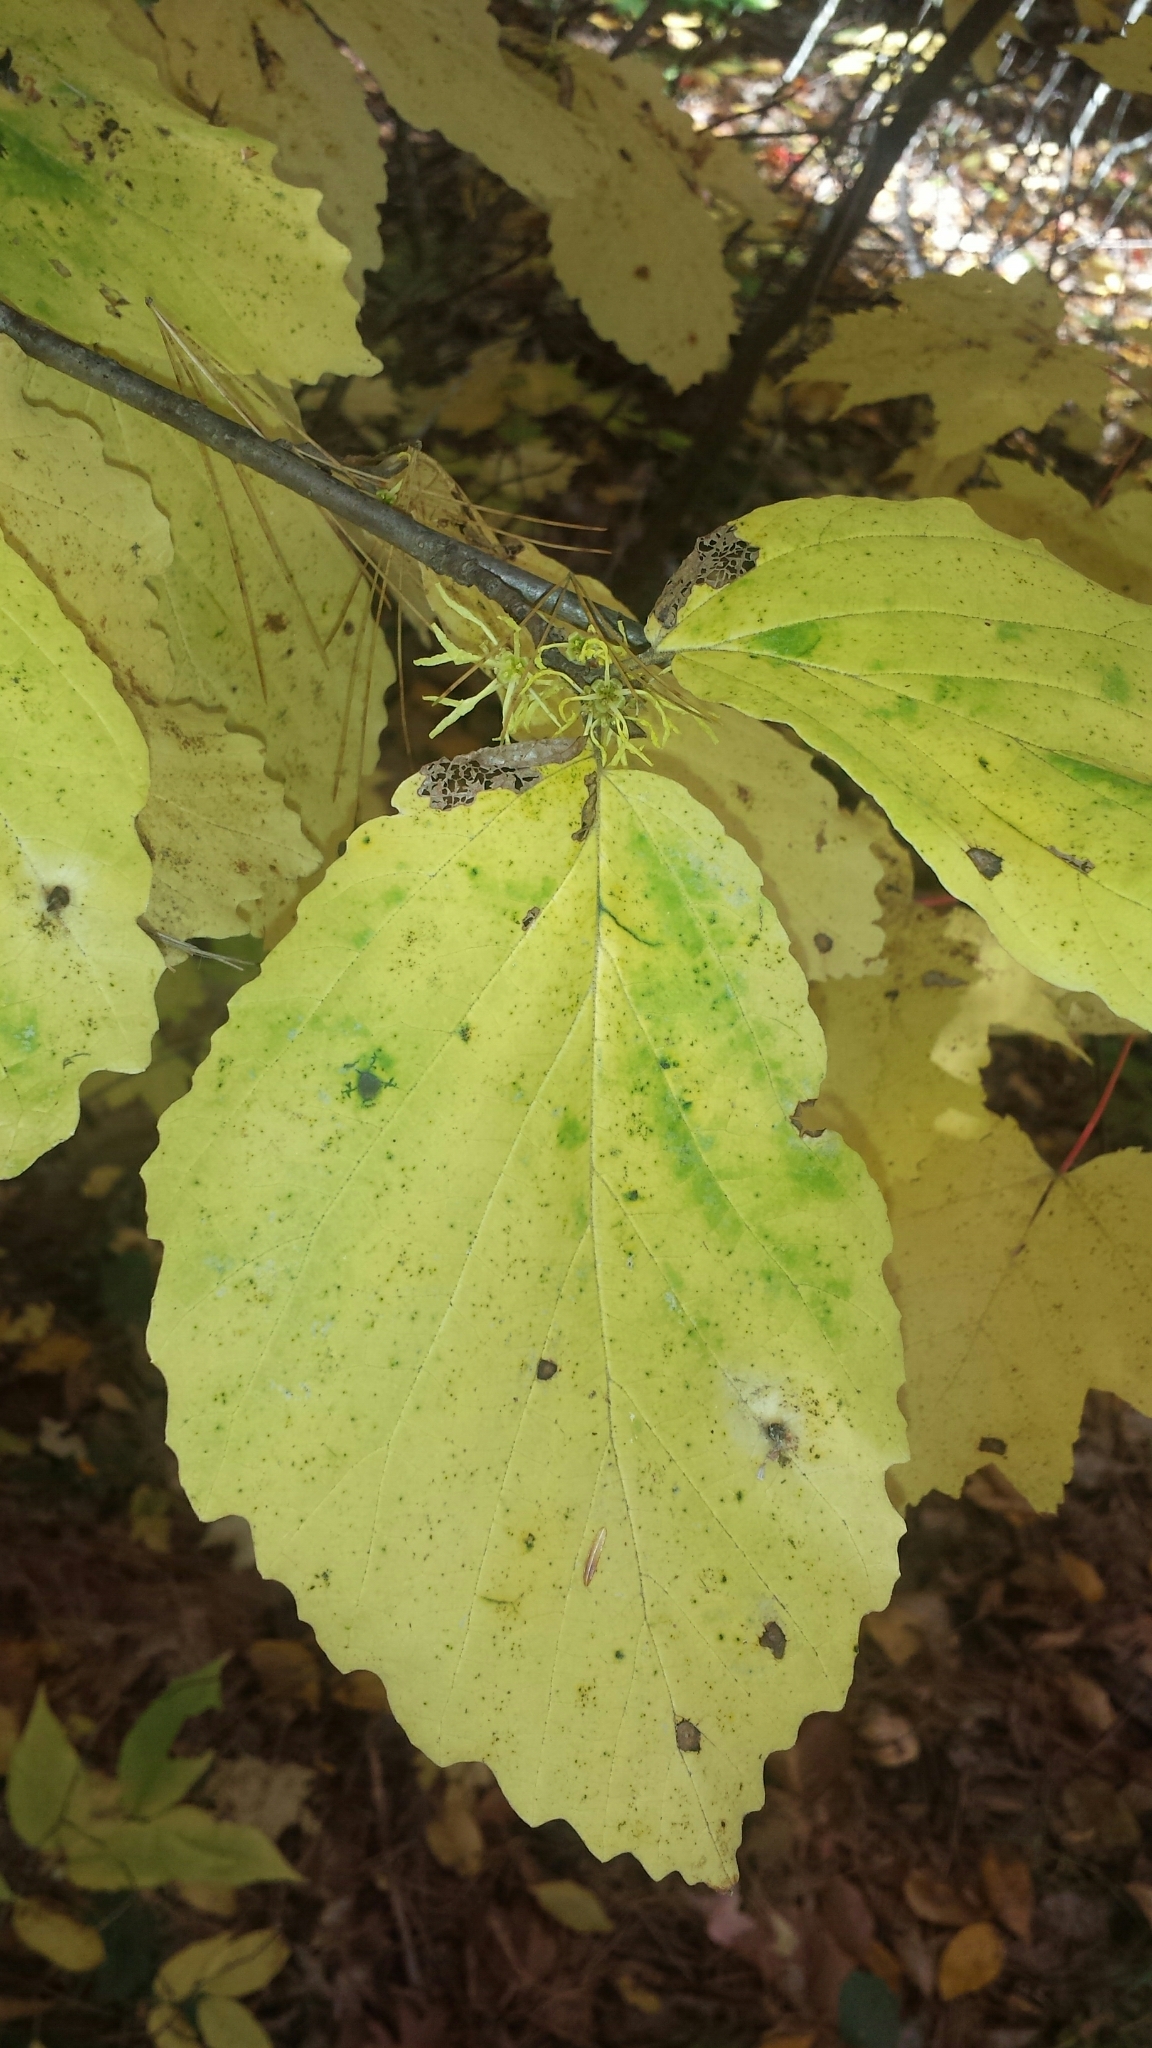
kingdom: Plantae
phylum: Tracheophyta
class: Magnoliopsida
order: Saxifragales
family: Hamamelidaceae
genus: Hamamelis
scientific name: Hamamelis virginiana
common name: Witch-hazel
